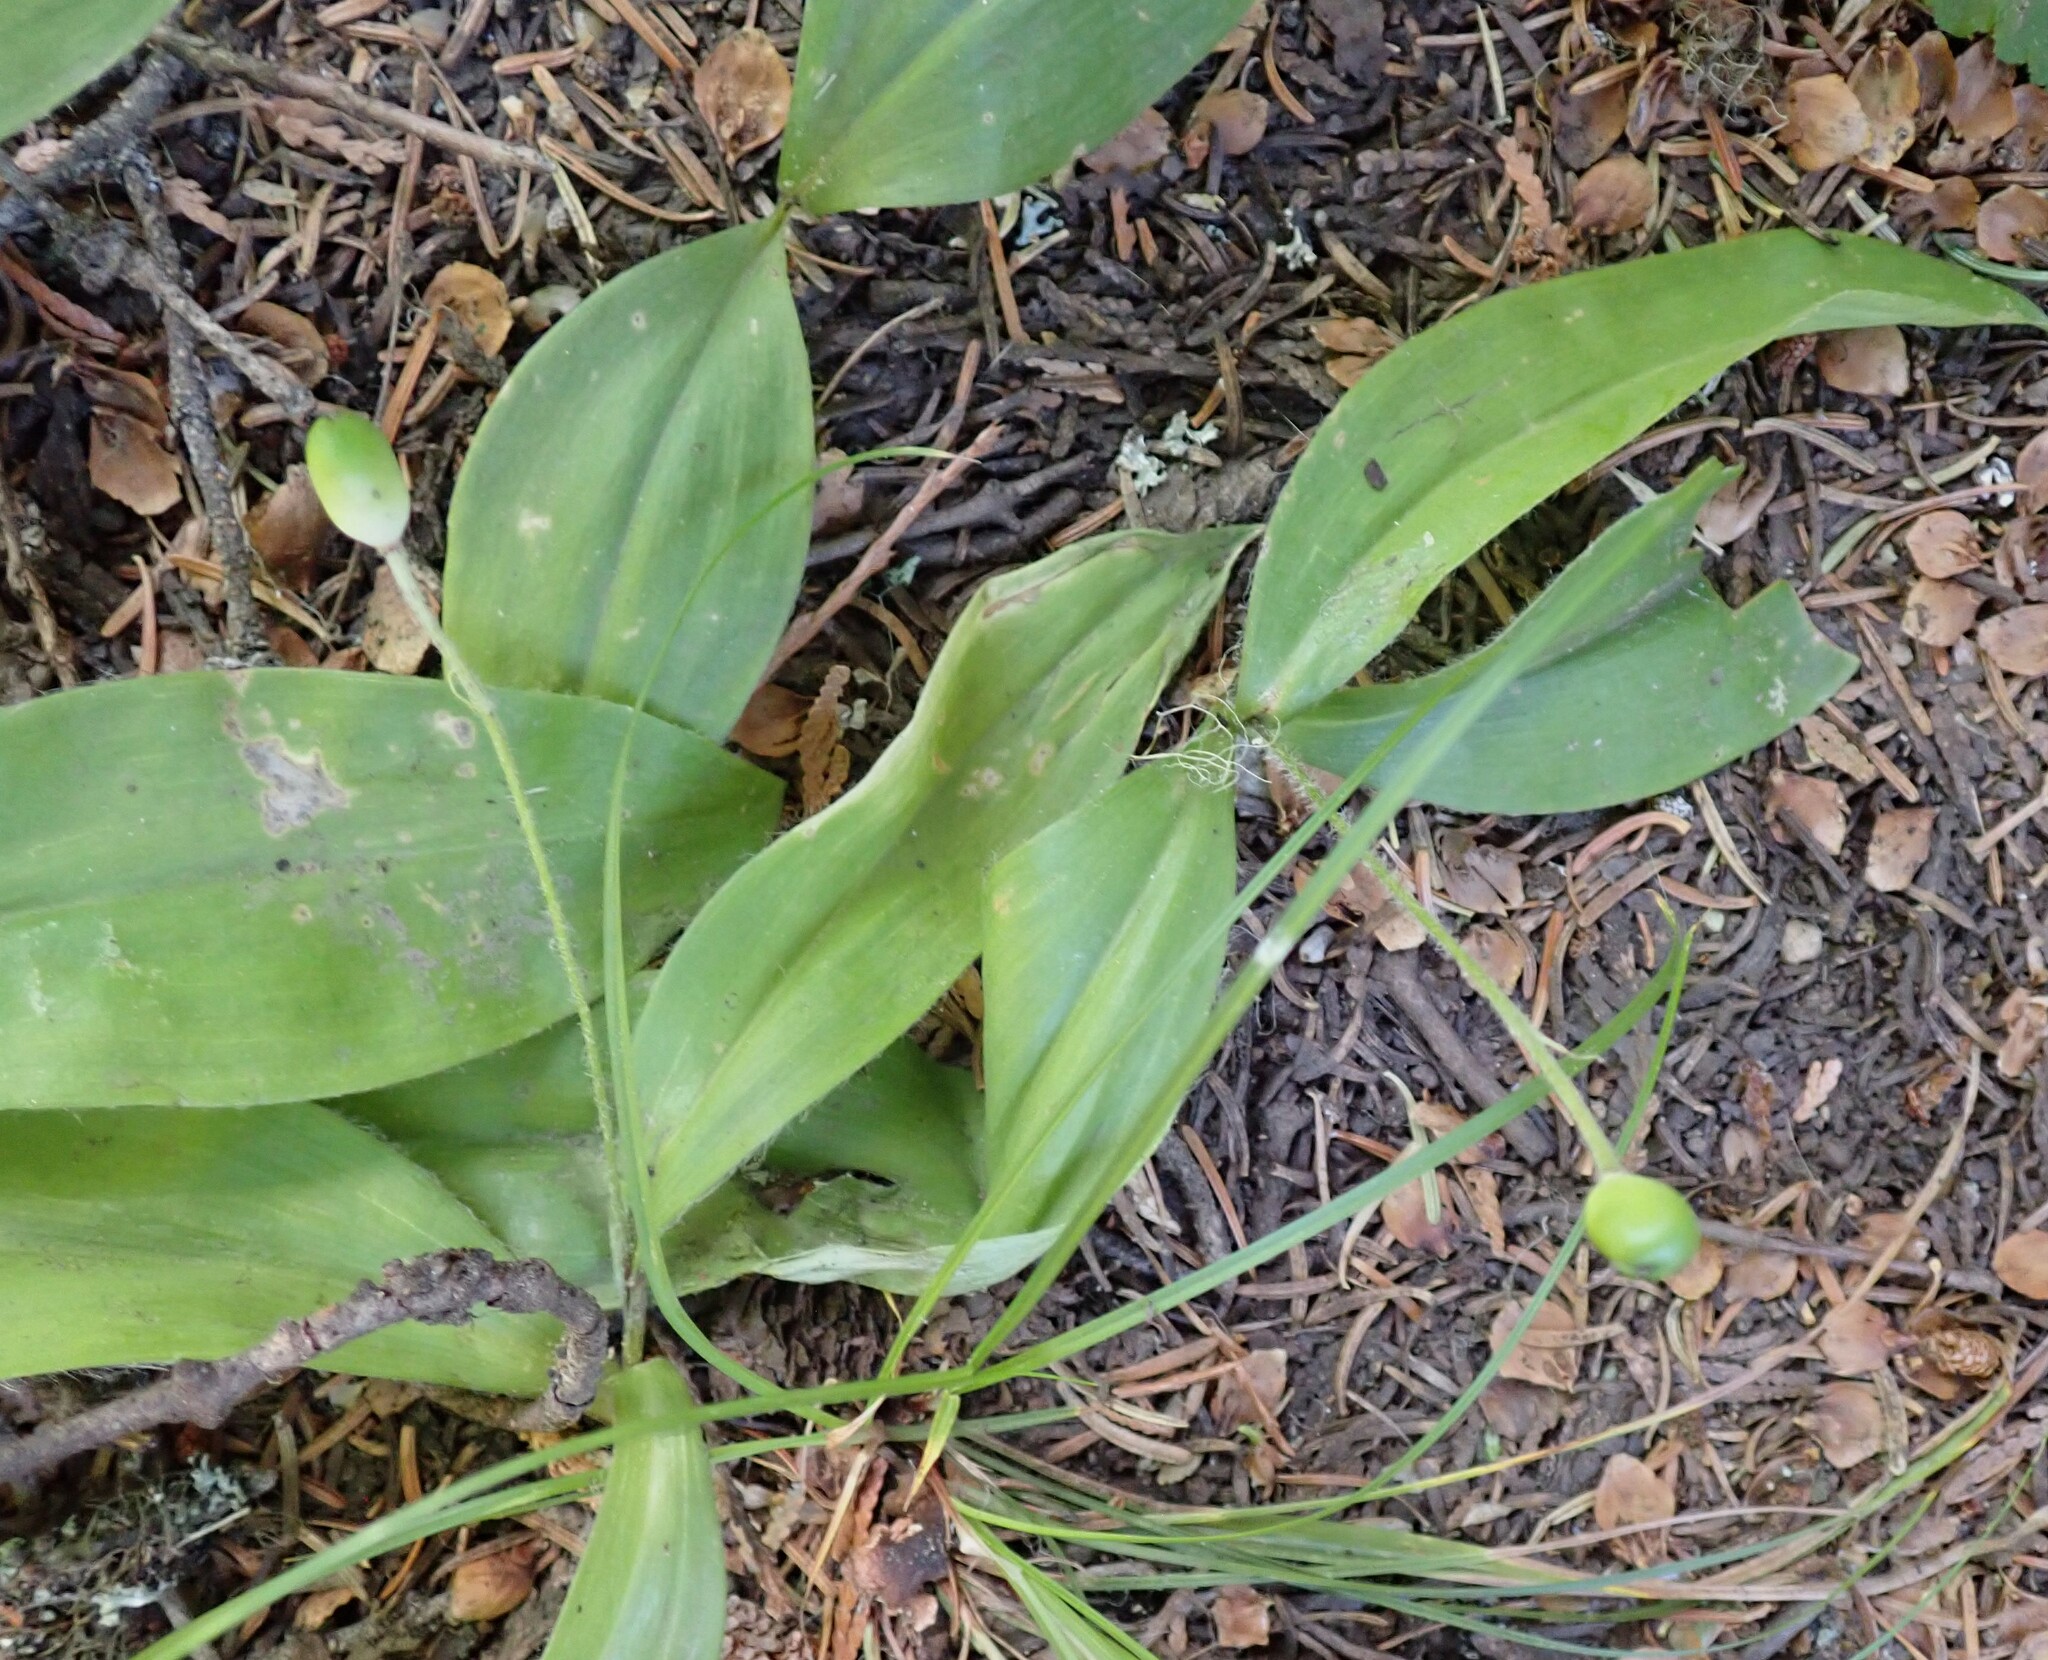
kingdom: Plantae
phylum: Tracheophyta
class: Liliopsida
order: Liliales
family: Liliaceae
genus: Clintonia
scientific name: Clintonia uniflora
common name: Queen's cup
